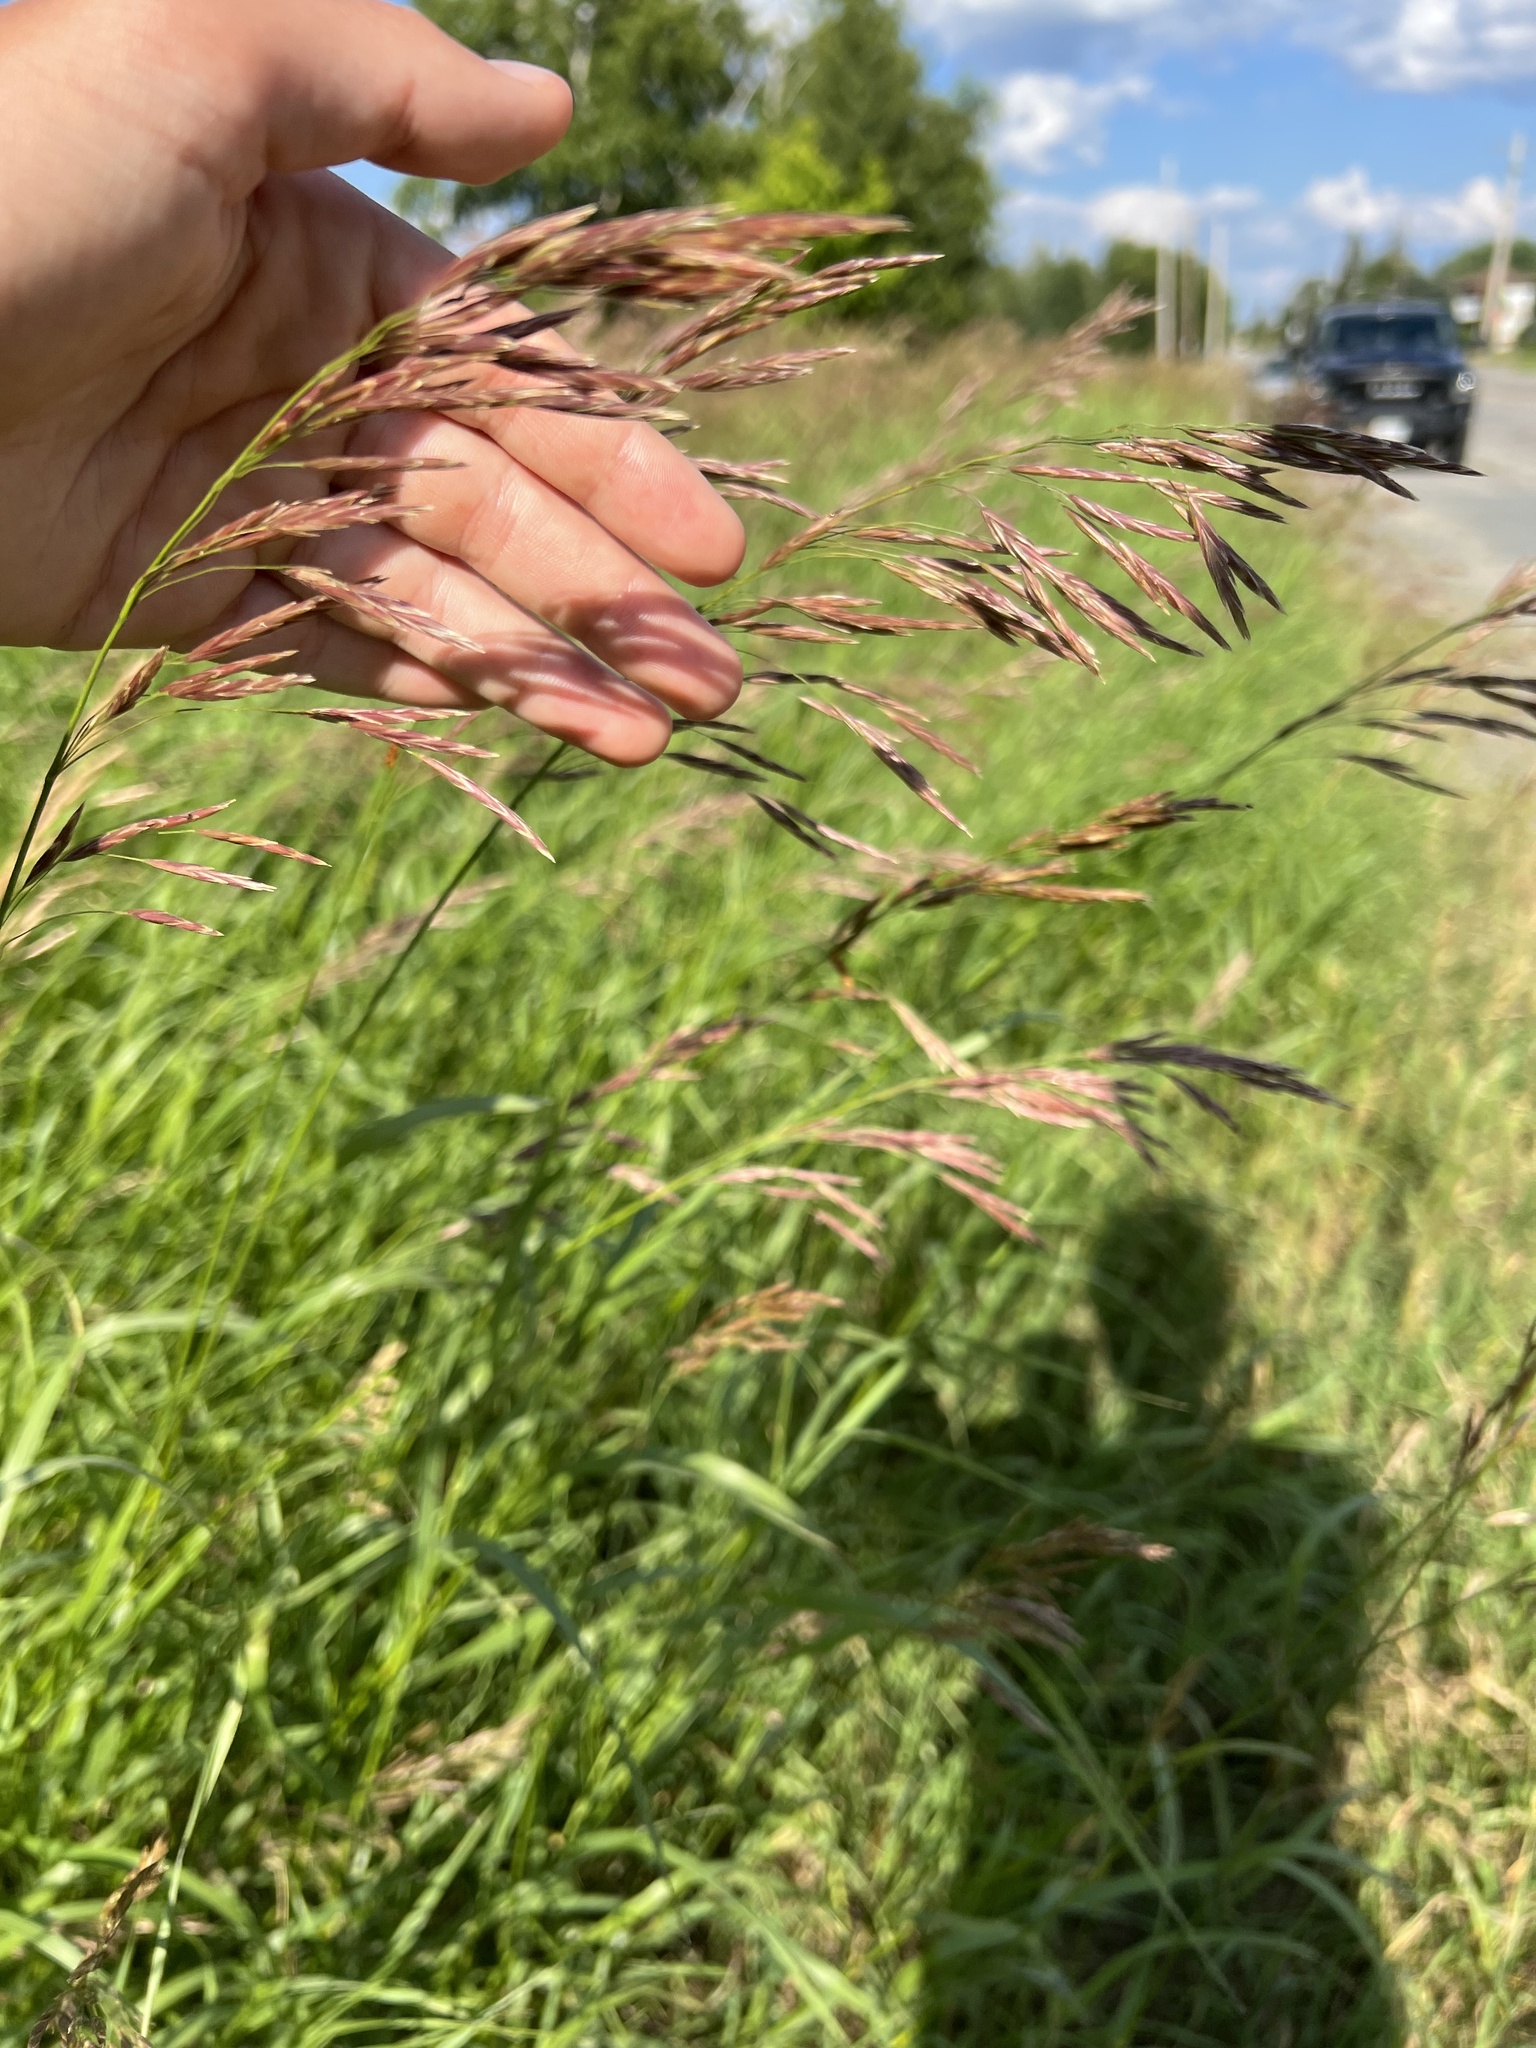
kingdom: Plantae
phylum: Tracheophyta
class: Liliopsida
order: Poales
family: Poaceae
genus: Bromus
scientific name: Bromus inermis
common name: Smooth brome
